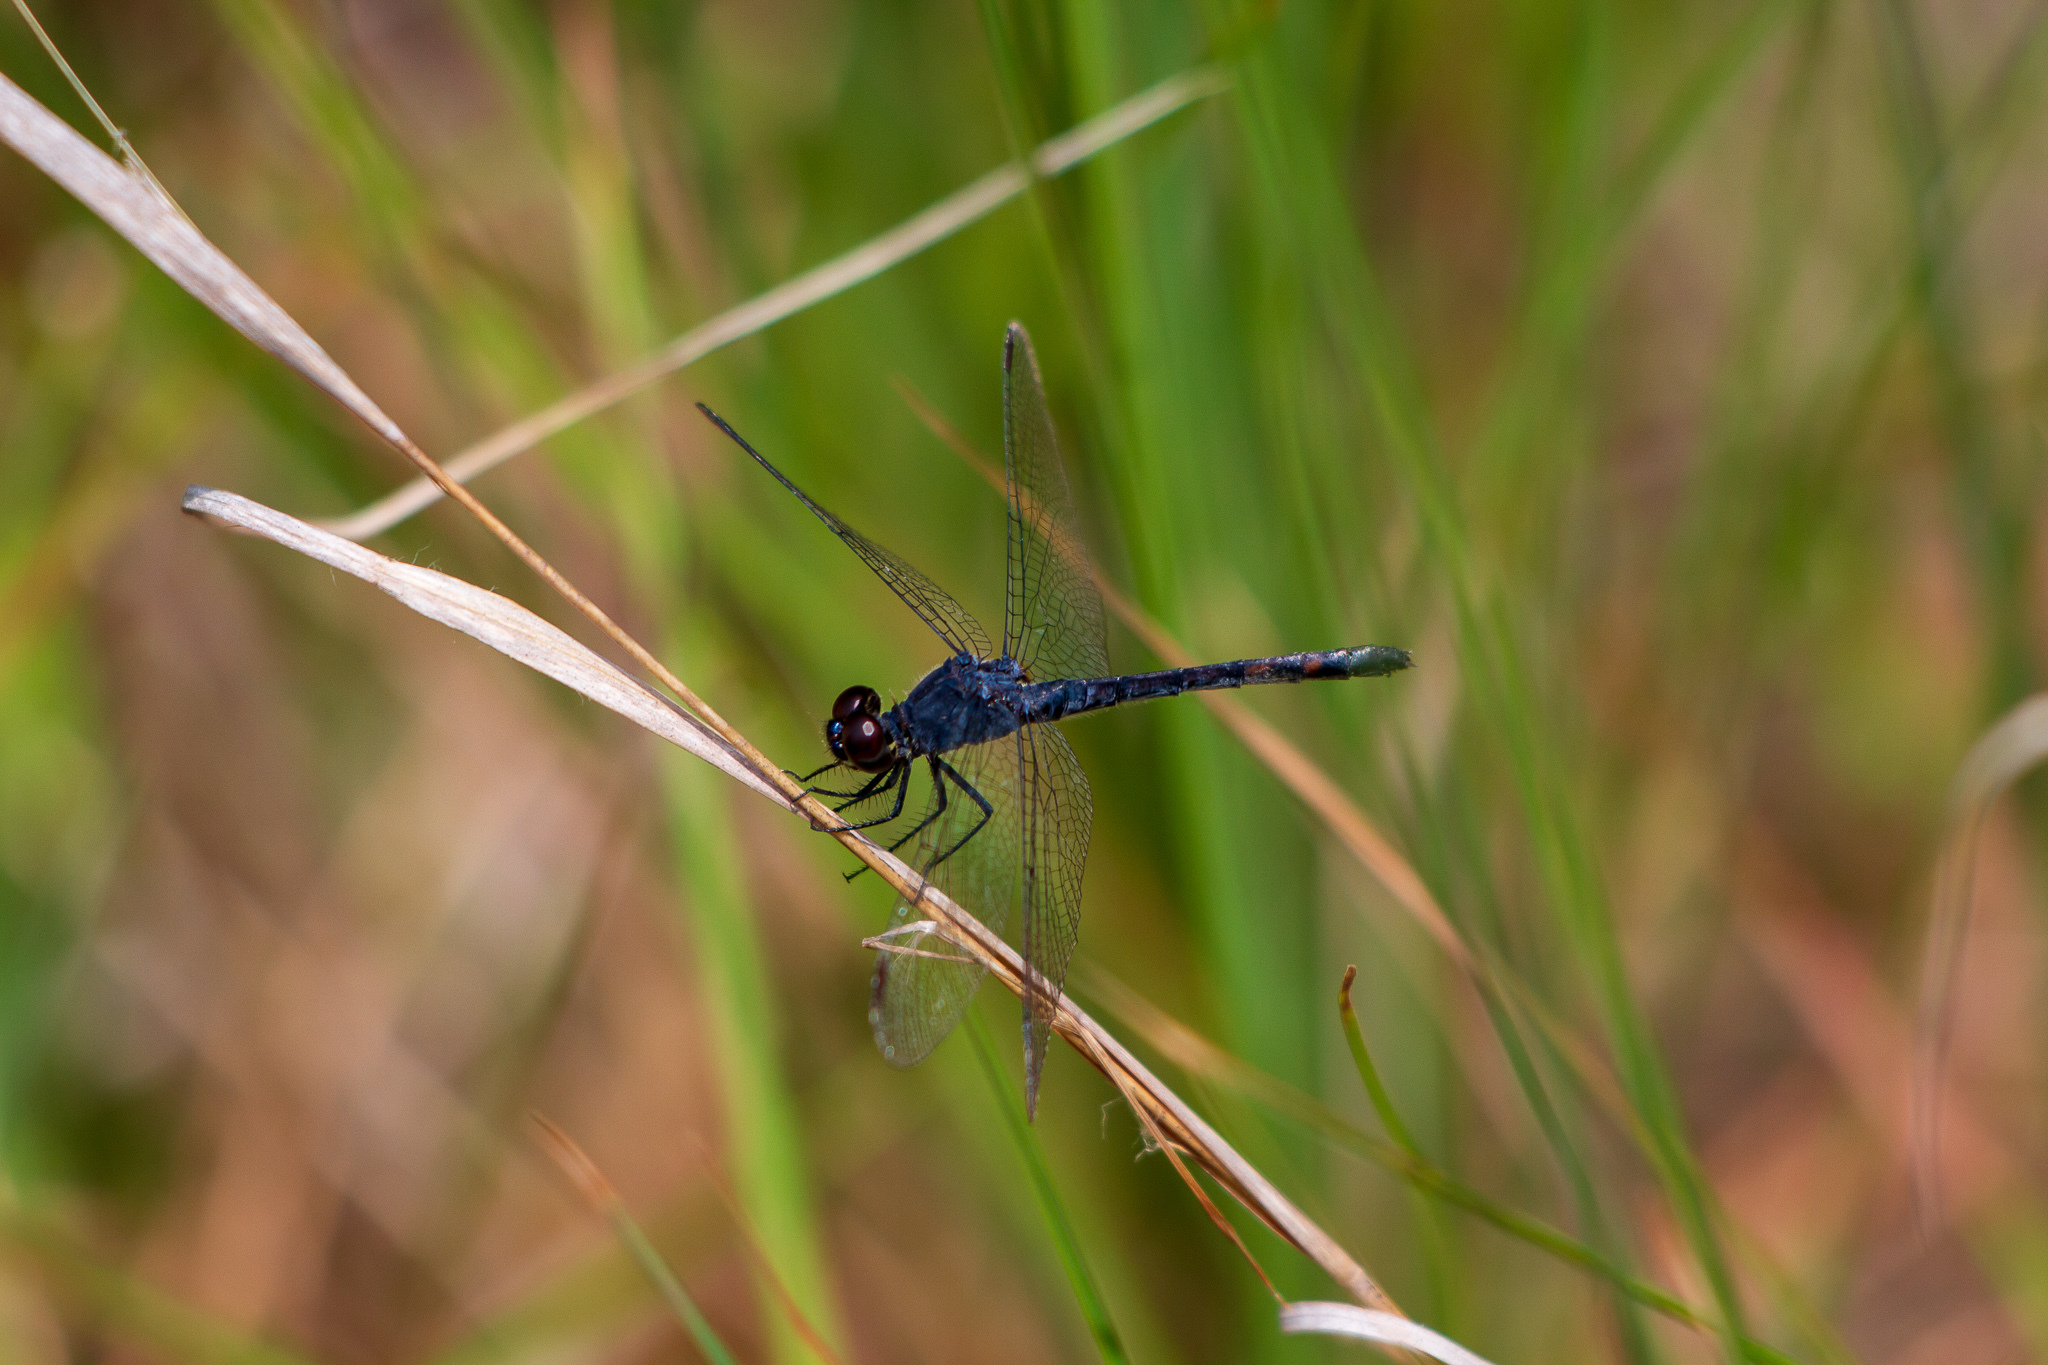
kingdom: Animalia
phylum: Arthropoda
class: Insecta
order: Odonata
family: Libellulidae
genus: Erythrodiplax
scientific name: Erythrodiplax berenice
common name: Seaside dragonlet
